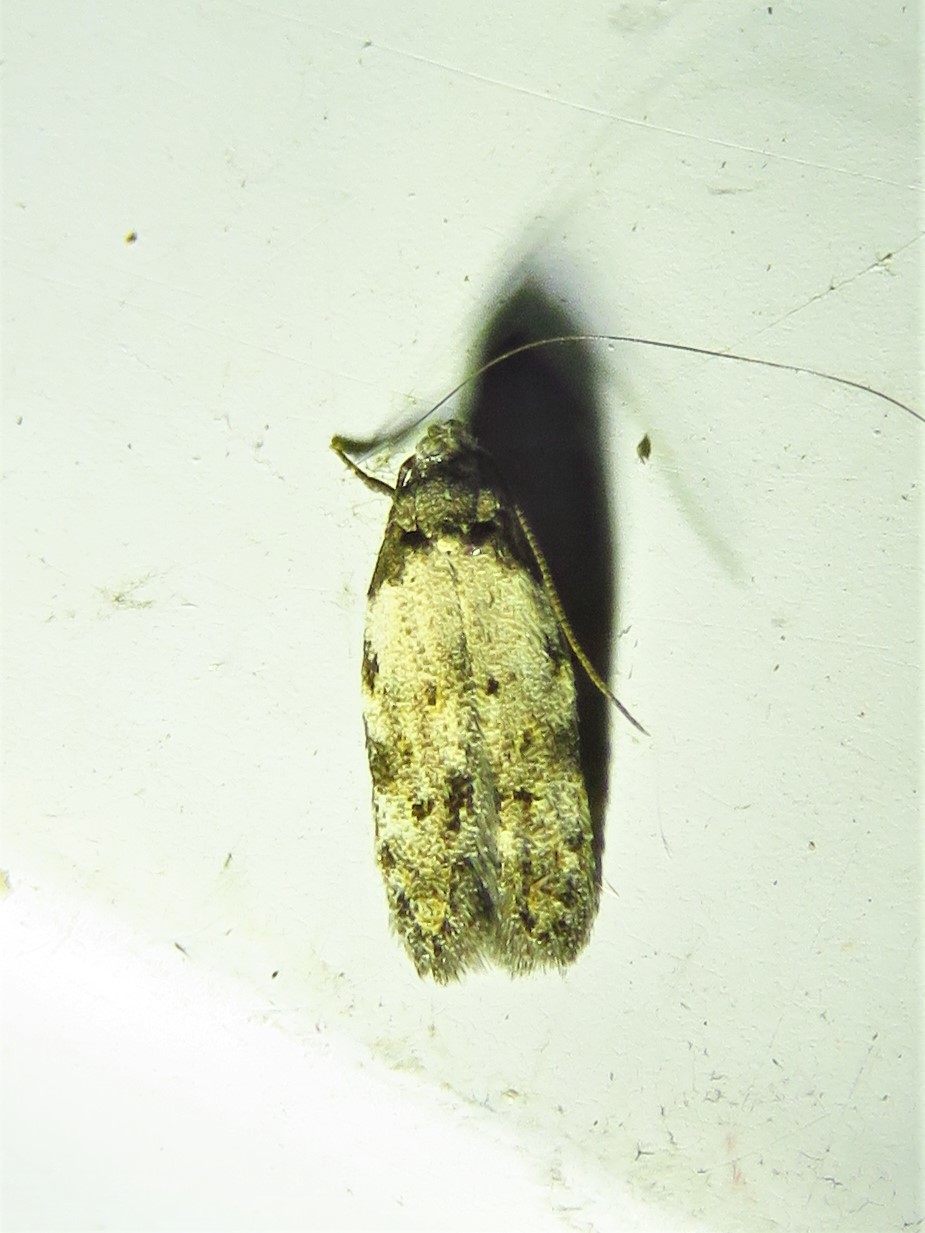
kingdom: Animalia
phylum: Arthropoda
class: Insecta
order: Lepidoptera
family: Autostichidae
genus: Taygete
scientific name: Taygete attributella
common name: Triangle-marked twirler moth
